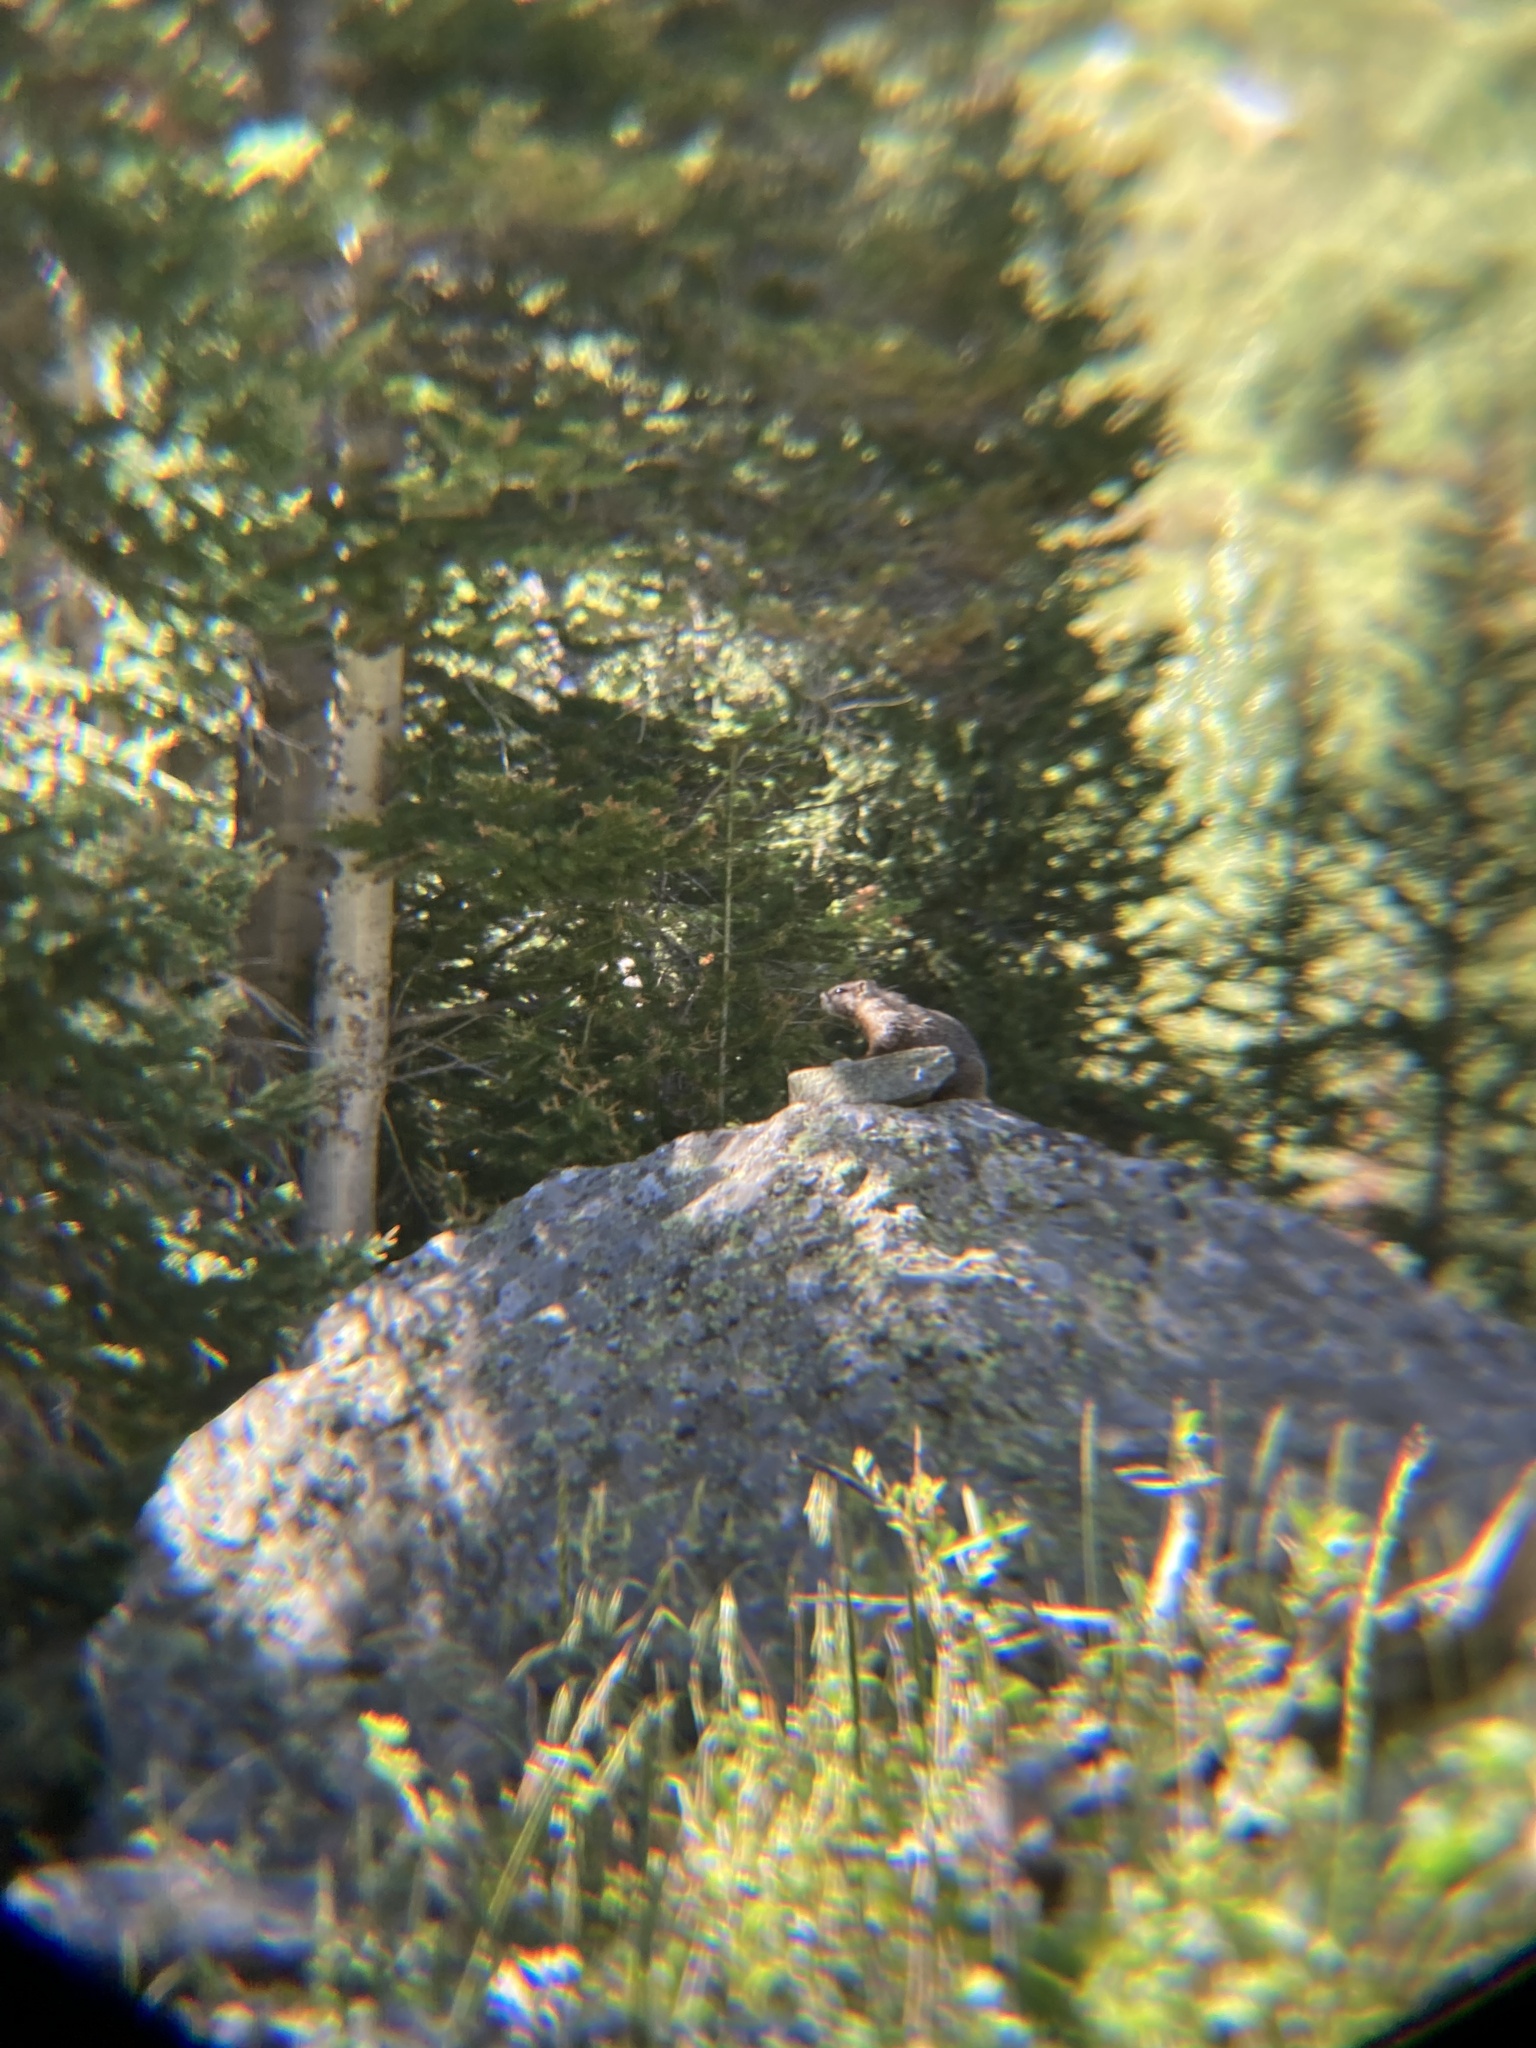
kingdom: Animalia
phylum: Chordata
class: Mammalia
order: Rodentia
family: Sciuridae
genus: Marmota
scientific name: Marmota flaviventris
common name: Yellow-bellied marmot
